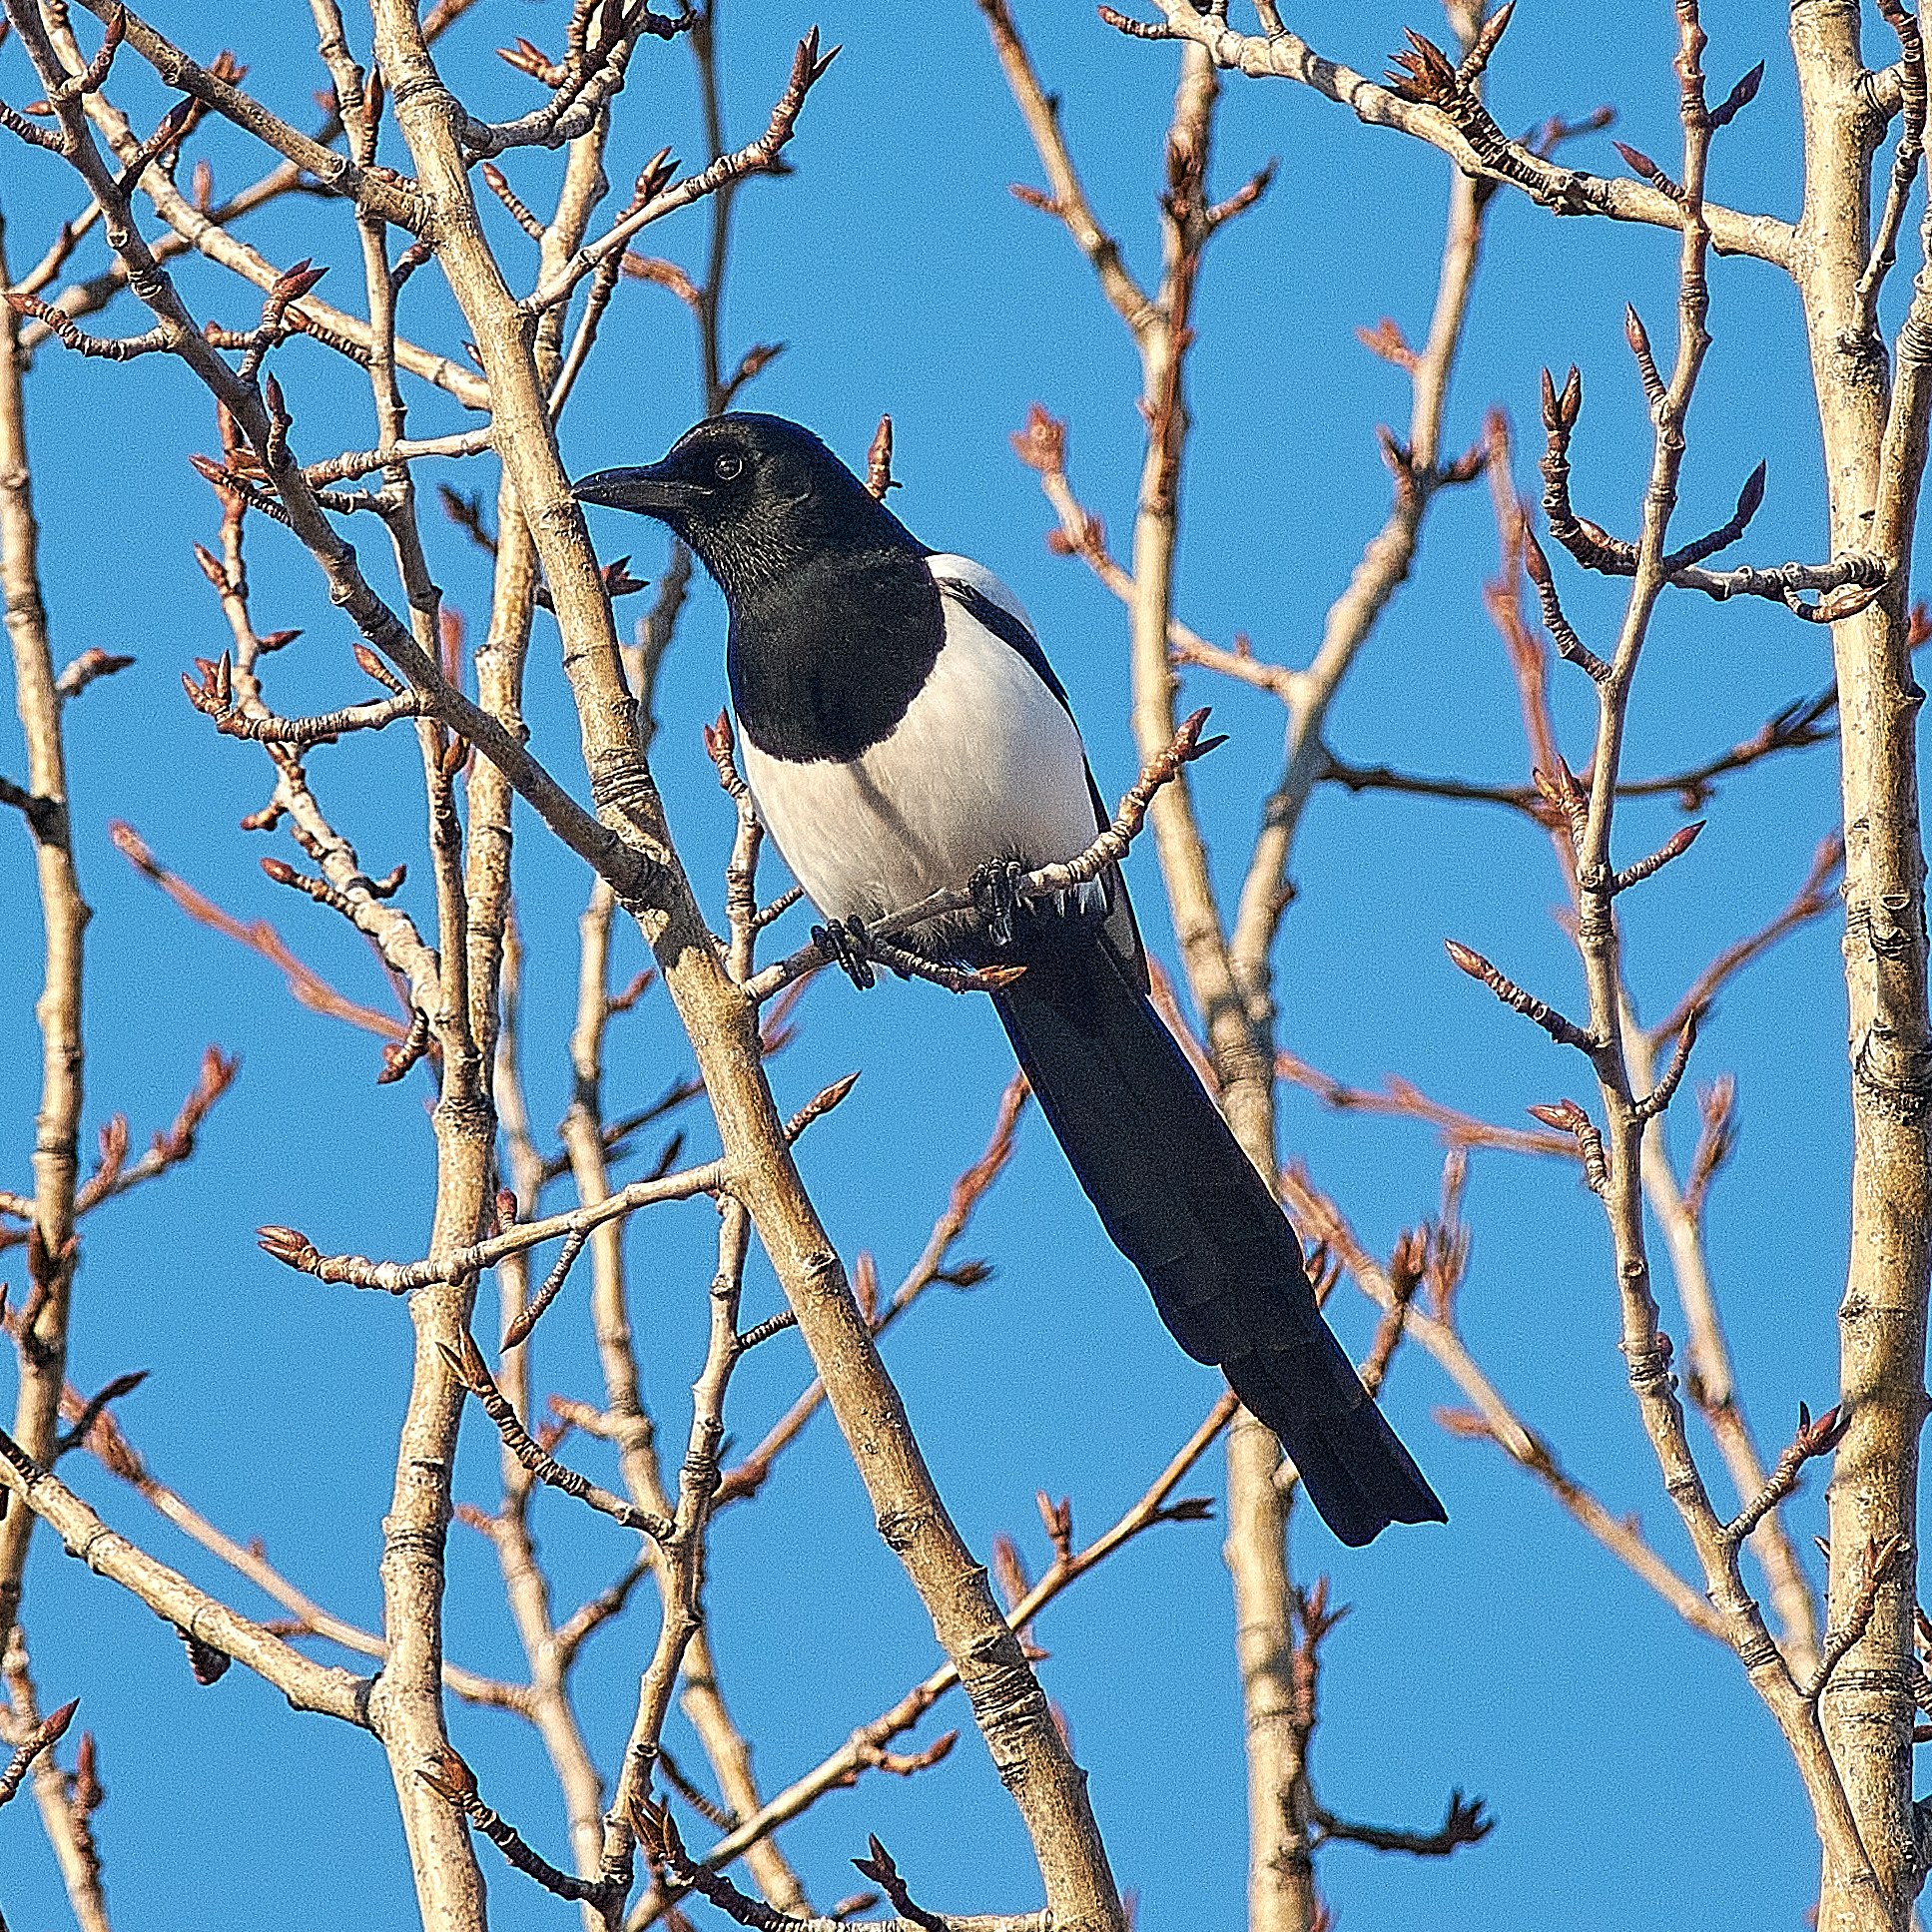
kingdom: Animalia
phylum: Chordata
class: Aves
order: Passeriformes
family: Corvidae
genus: Pica
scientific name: Pica pica
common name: Eurasian magpie
